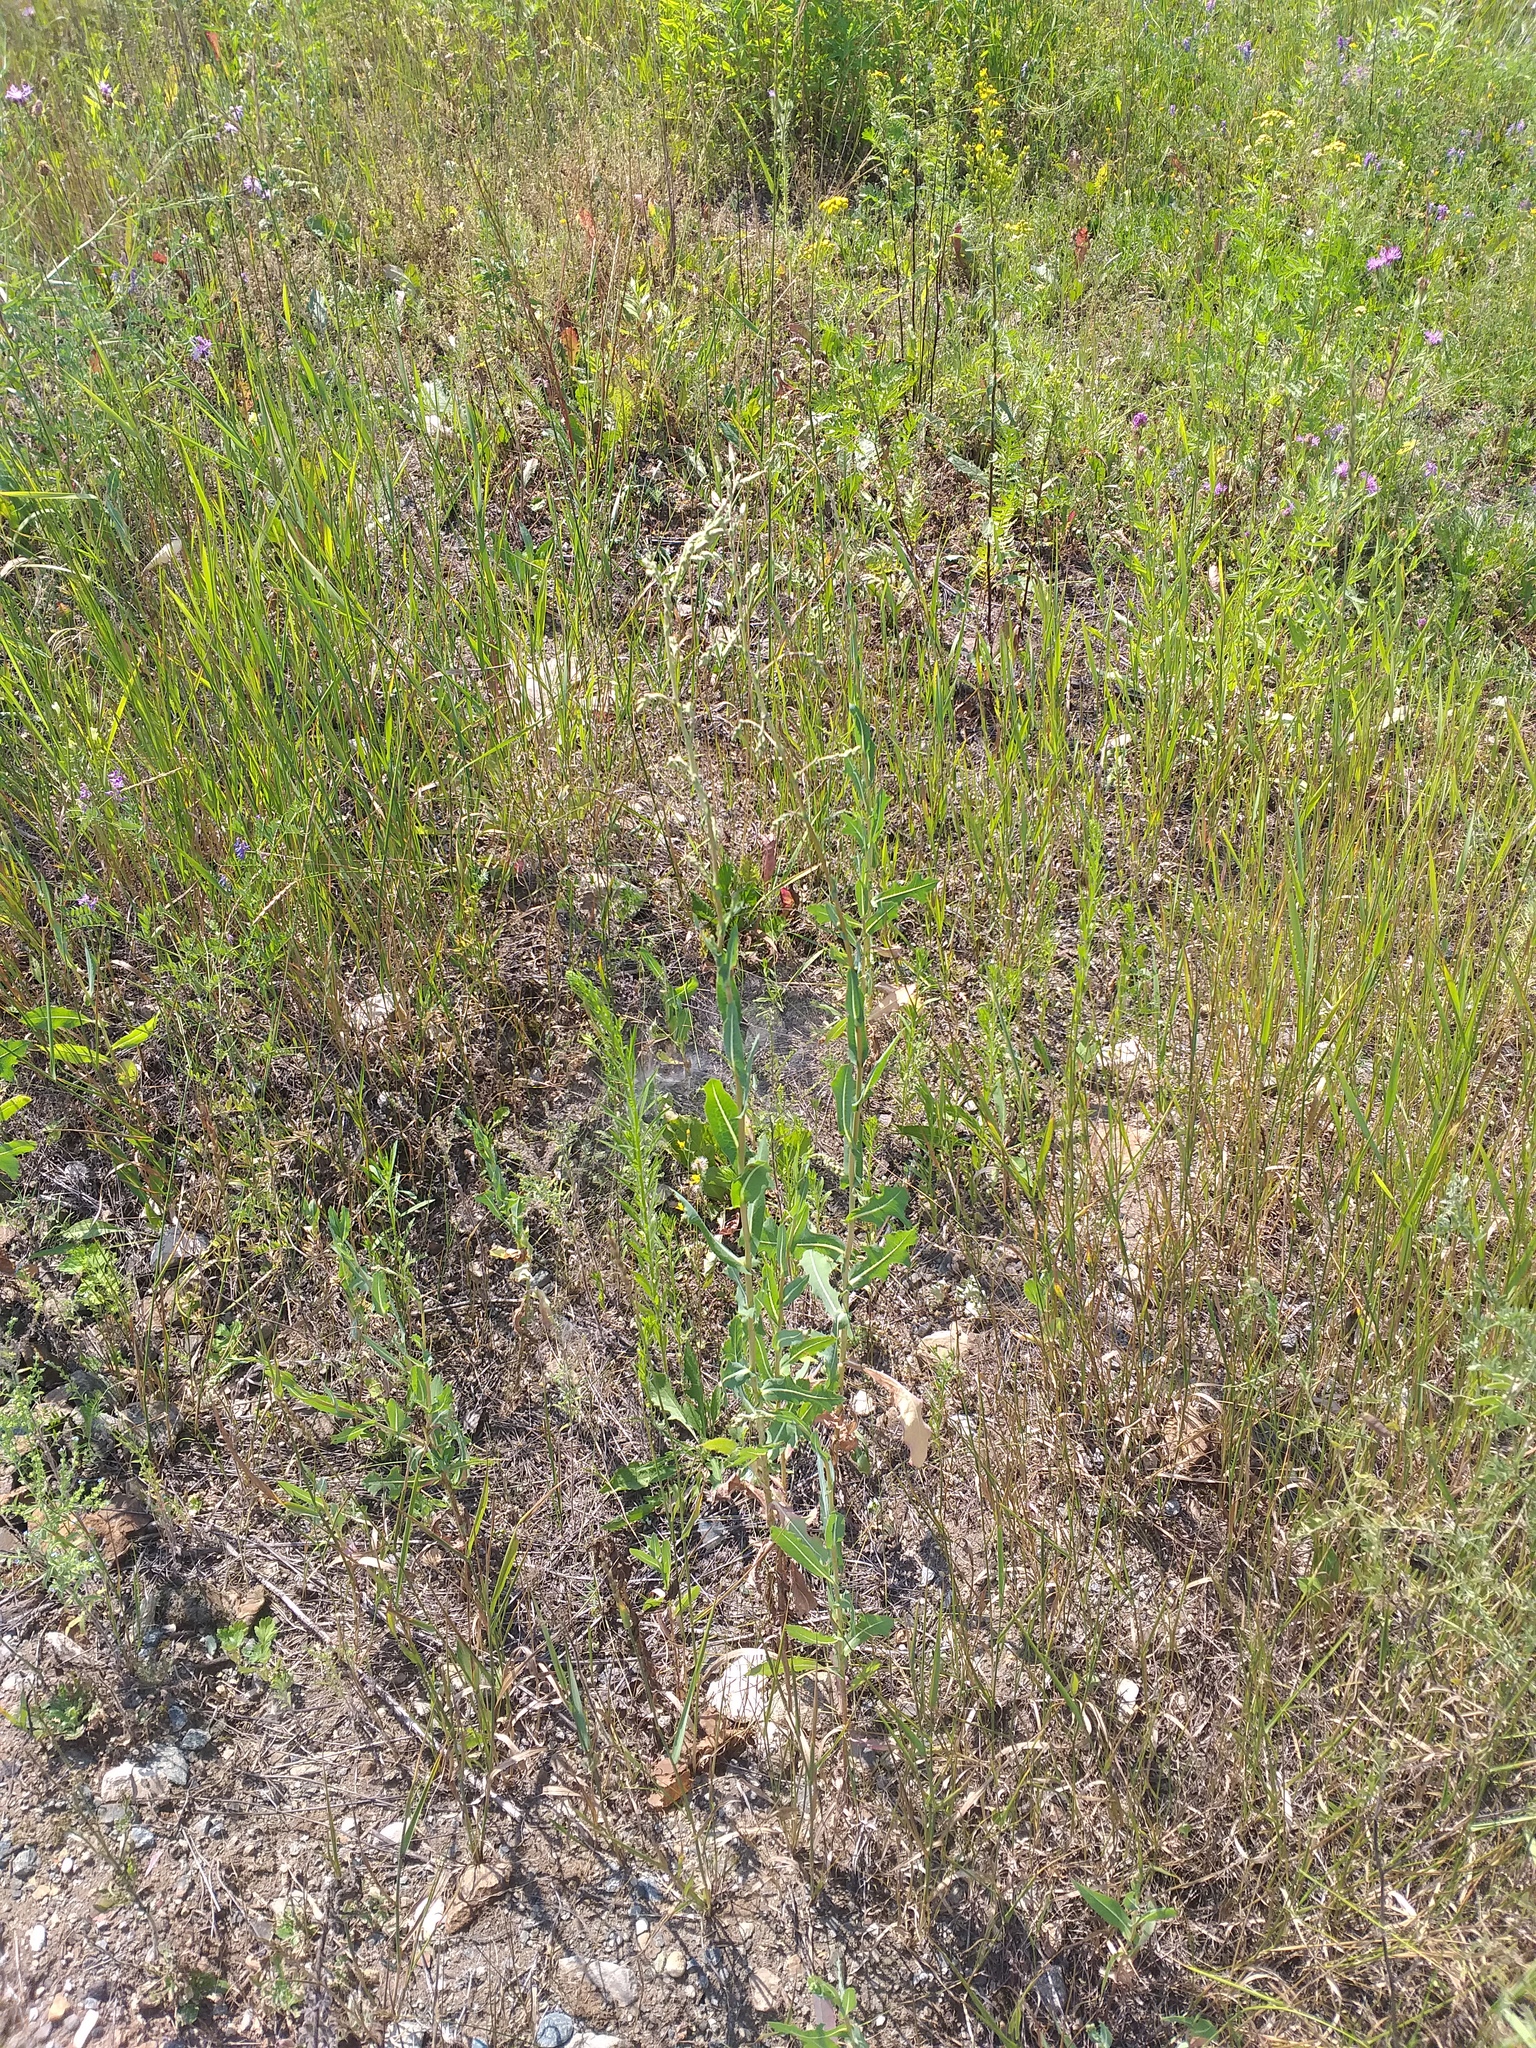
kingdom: Plantae
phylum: Tracheophyta
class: Magnoliopsida
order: Asterales
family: Asteraceae
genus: Lactuca
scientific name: Lactuca serriola
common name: Prickly lettuce
